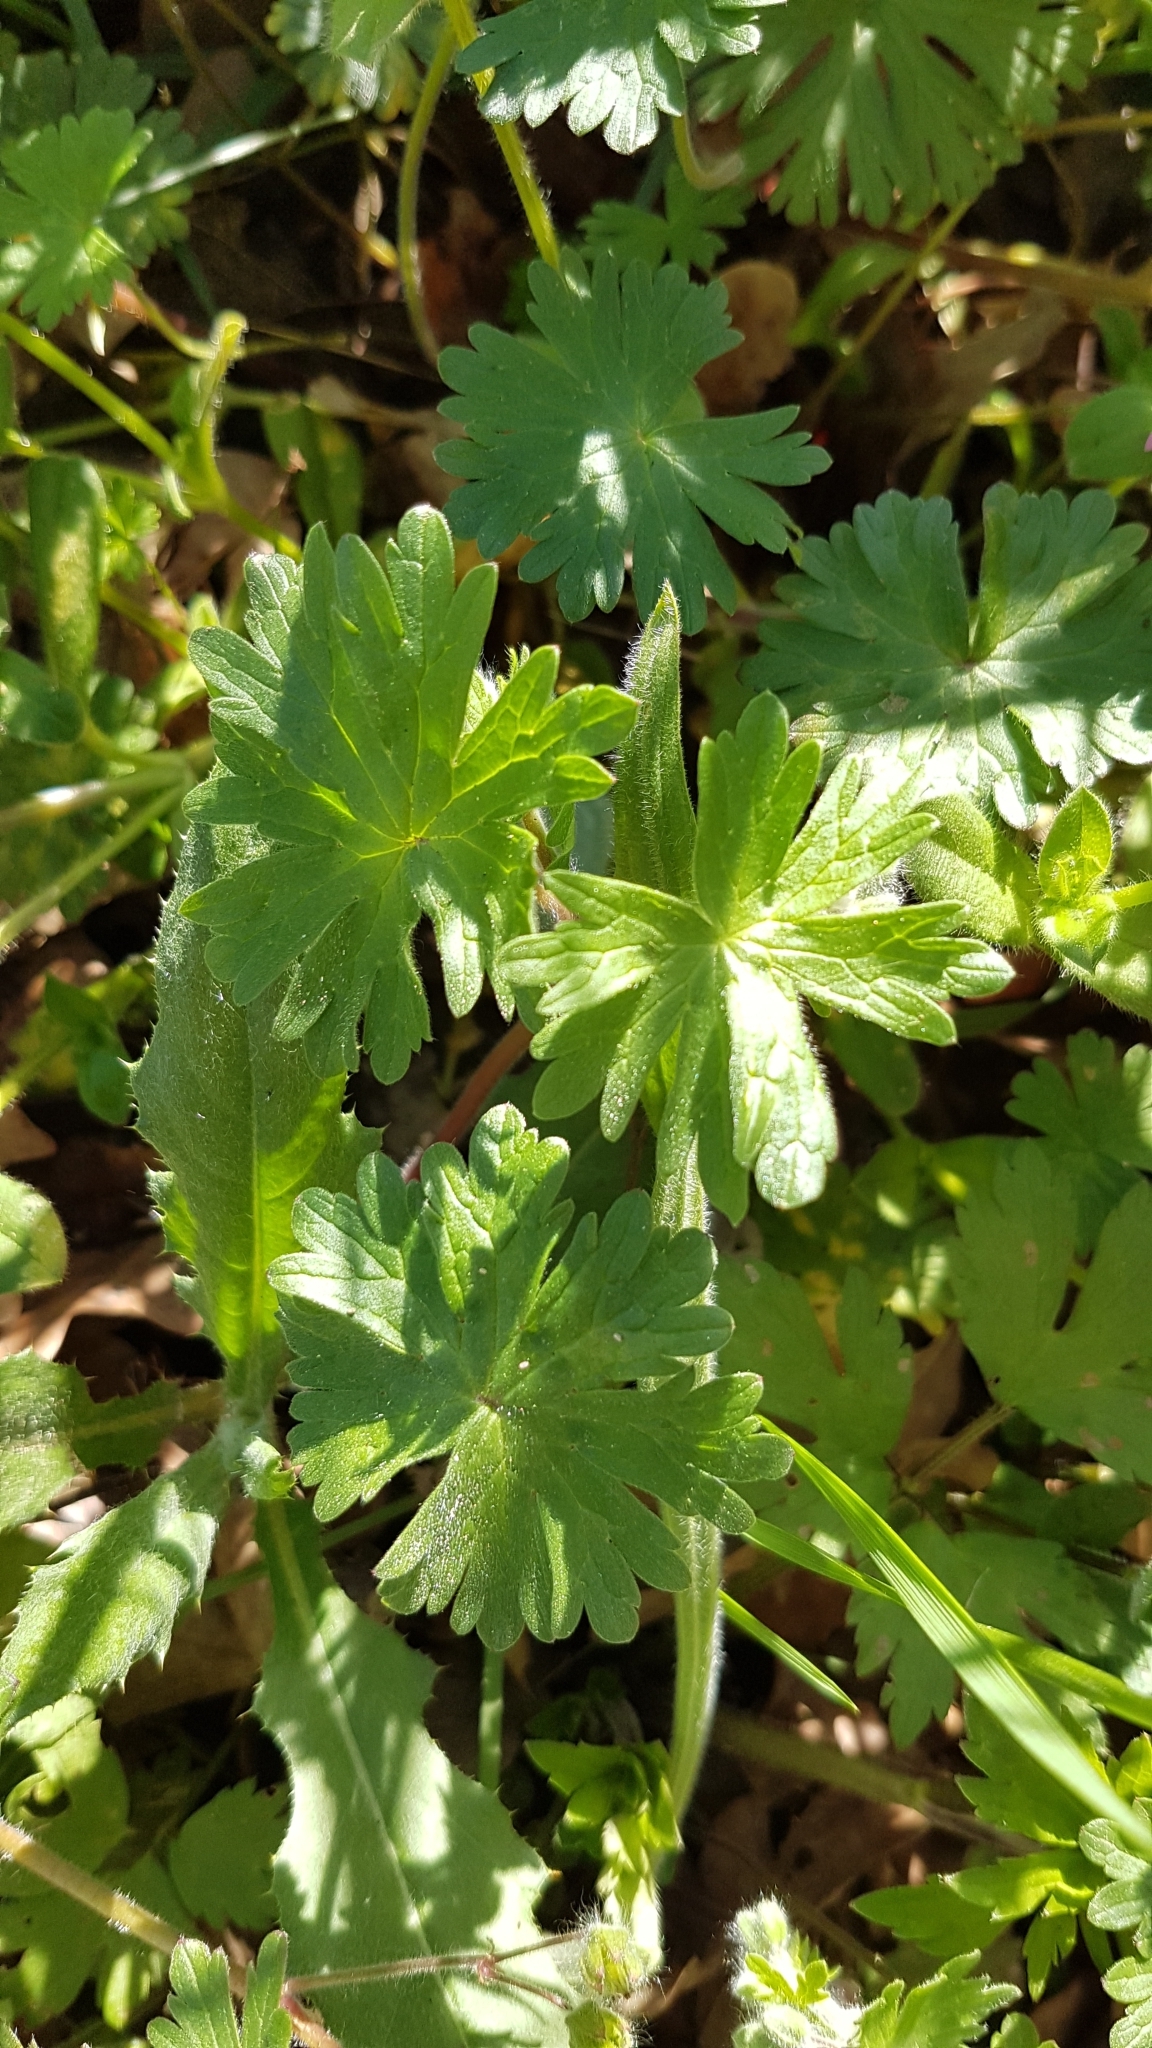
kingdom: Plantae
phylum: Tracheophyta
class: Magnoliopsida
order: Geraniales
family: Geraniaceae
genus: Geranium
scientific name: Geranium molle
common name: Dove's-foot crane's-bill
